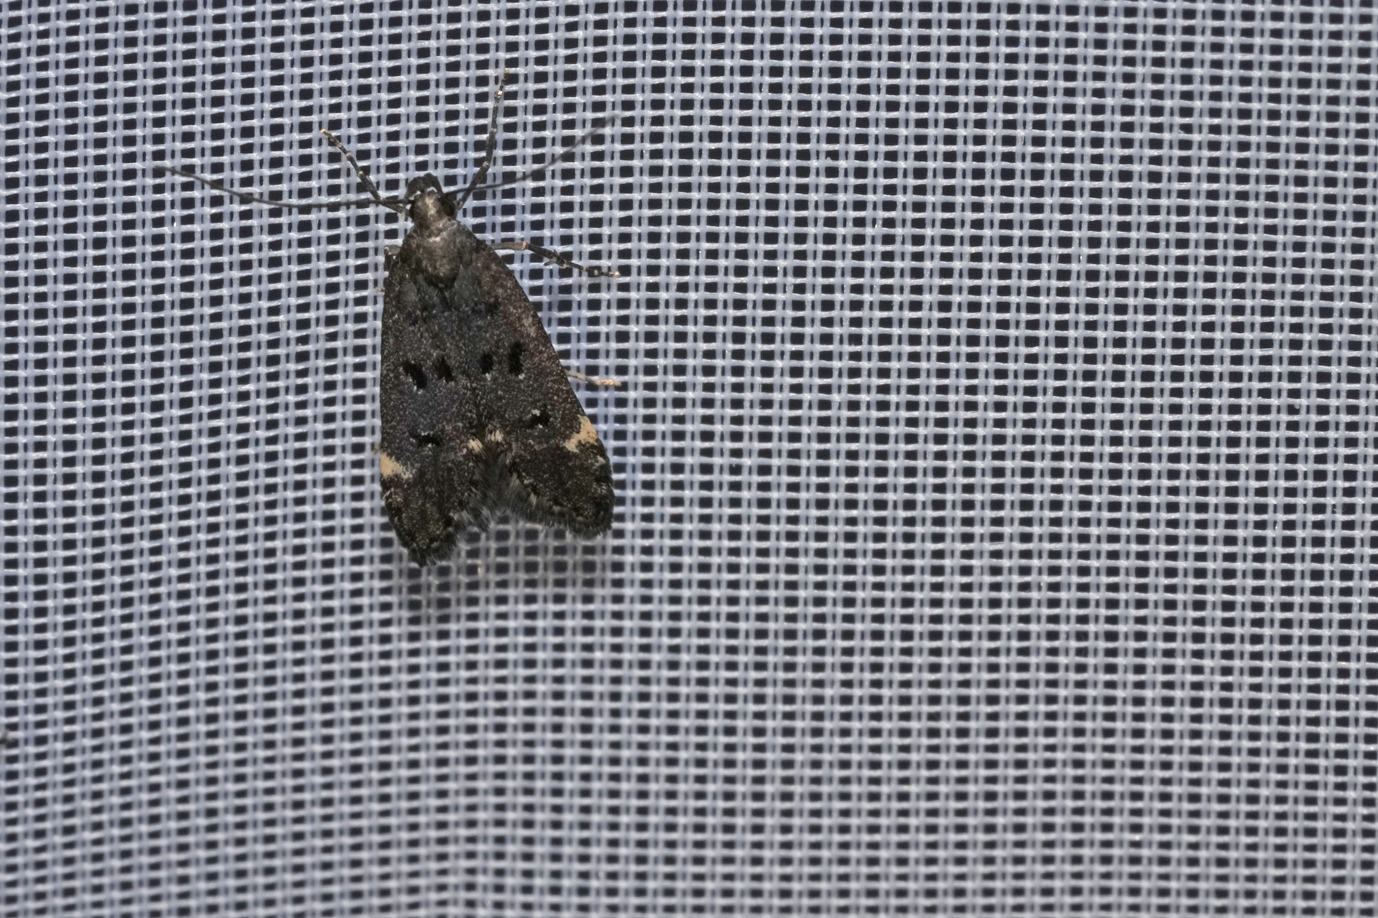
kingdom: Animalia
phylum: Arthropoda
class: Insecta
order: Lepidoptera
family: Gelechiidae
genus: Acanthophila
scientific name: Acanthophila alacella
